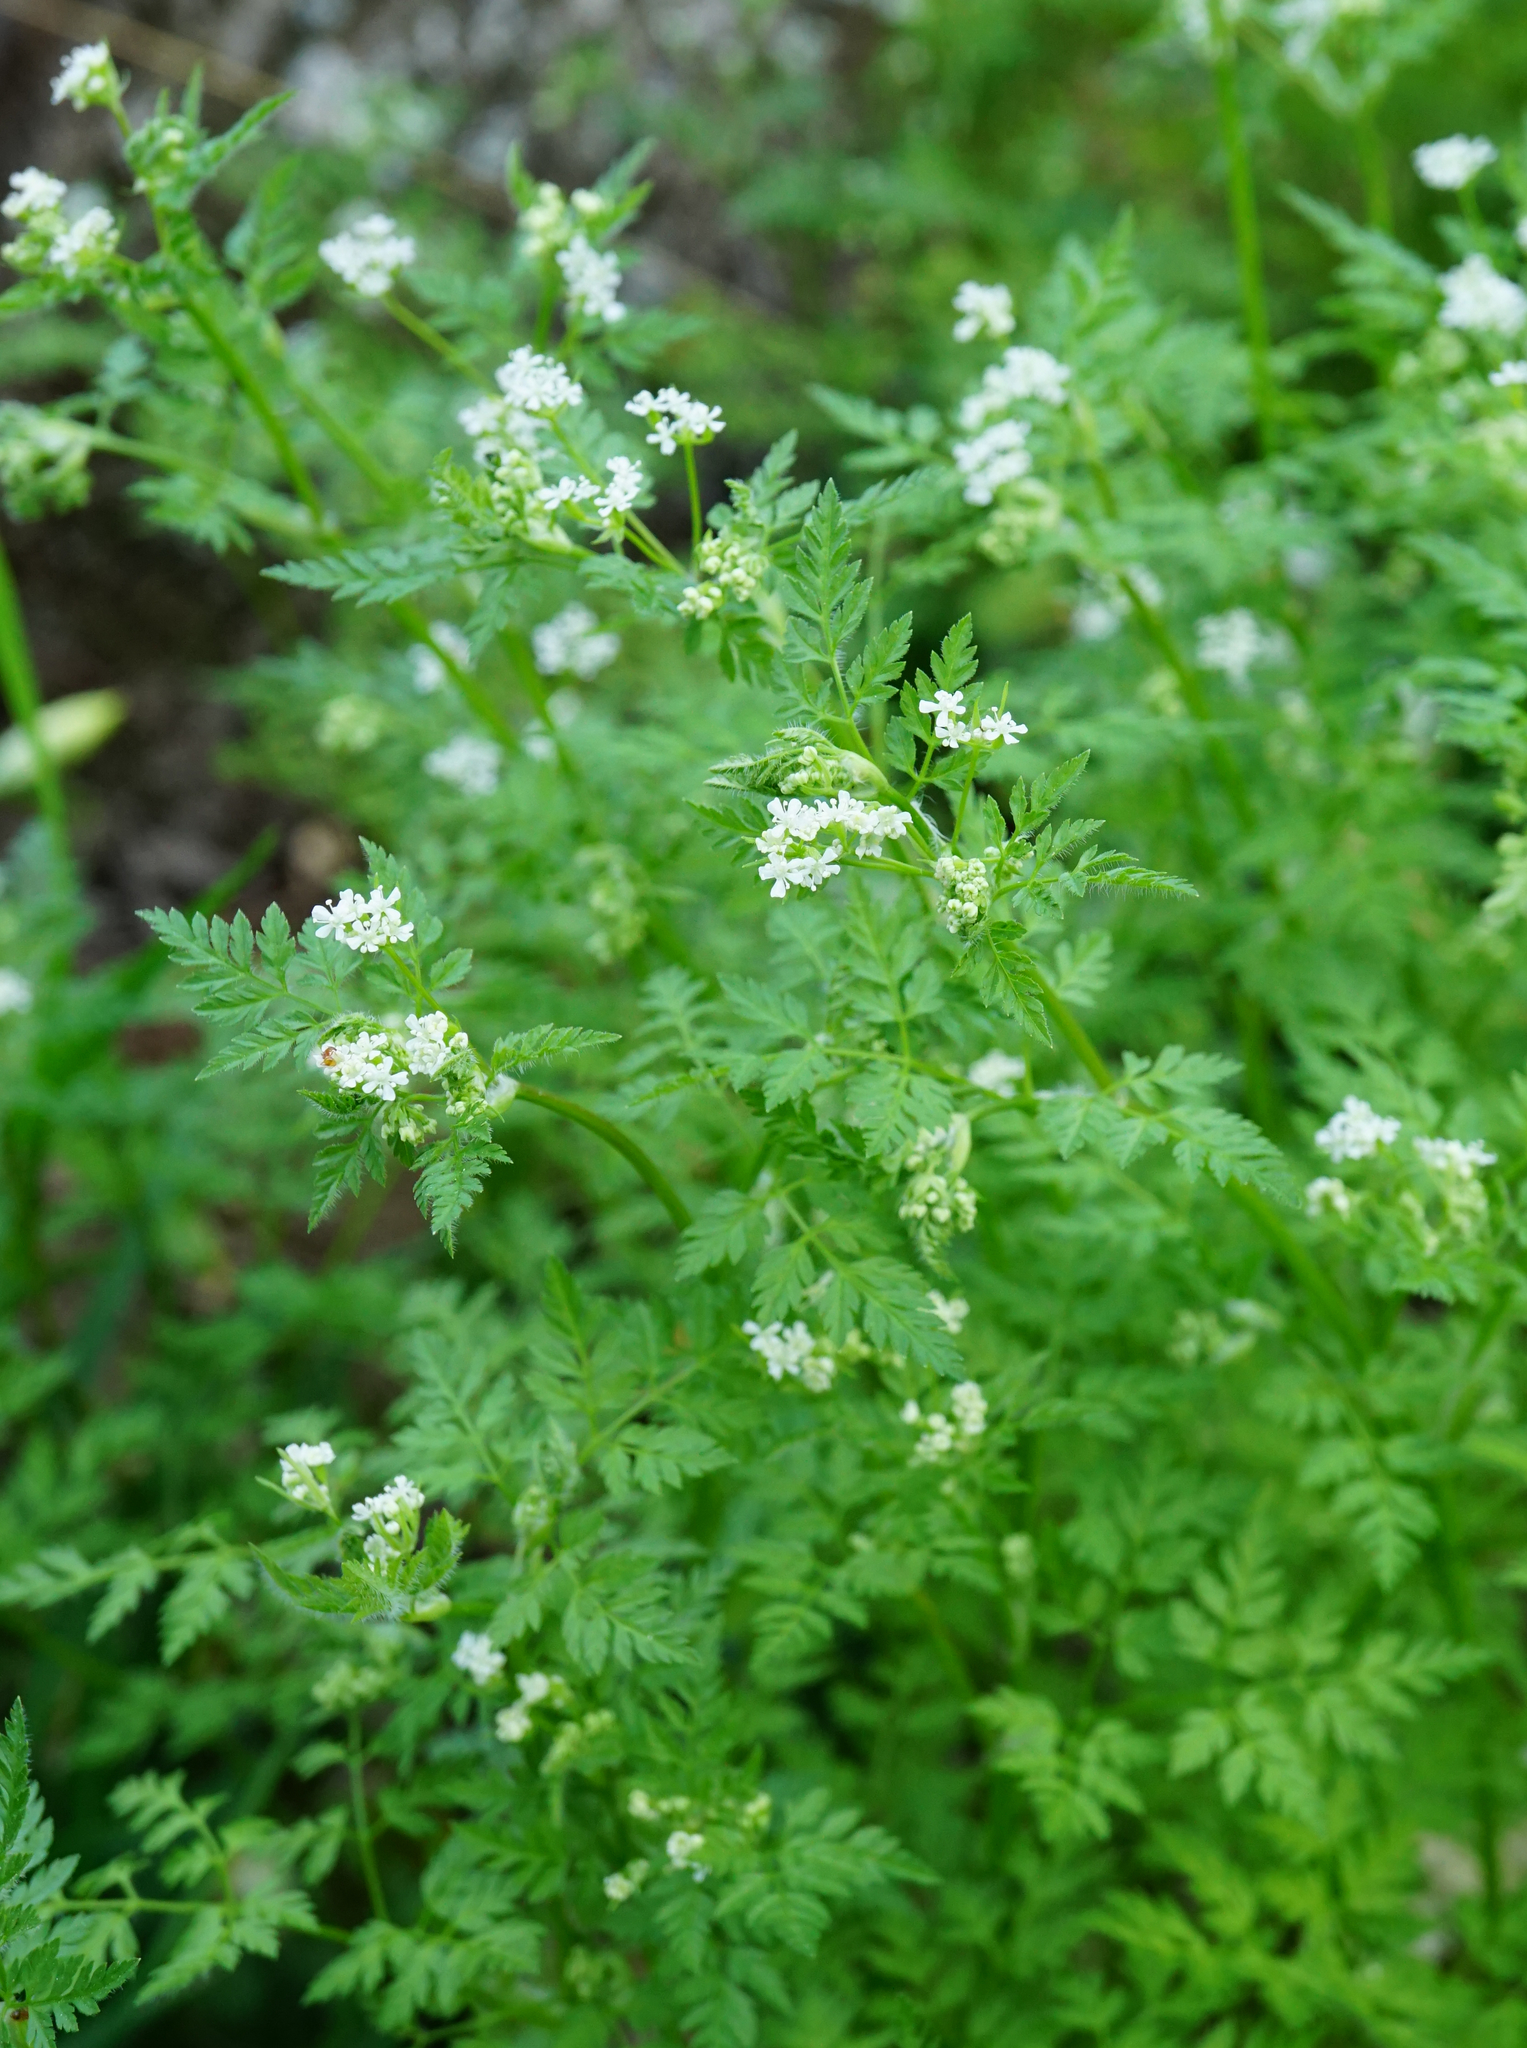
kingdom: Plantae
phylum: Tracheophyta
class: Magnoliopsida
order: Apiales
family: Apiaceae
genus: Anthriscus
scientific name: Anthriscus cerefolium
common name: Garden chervil
